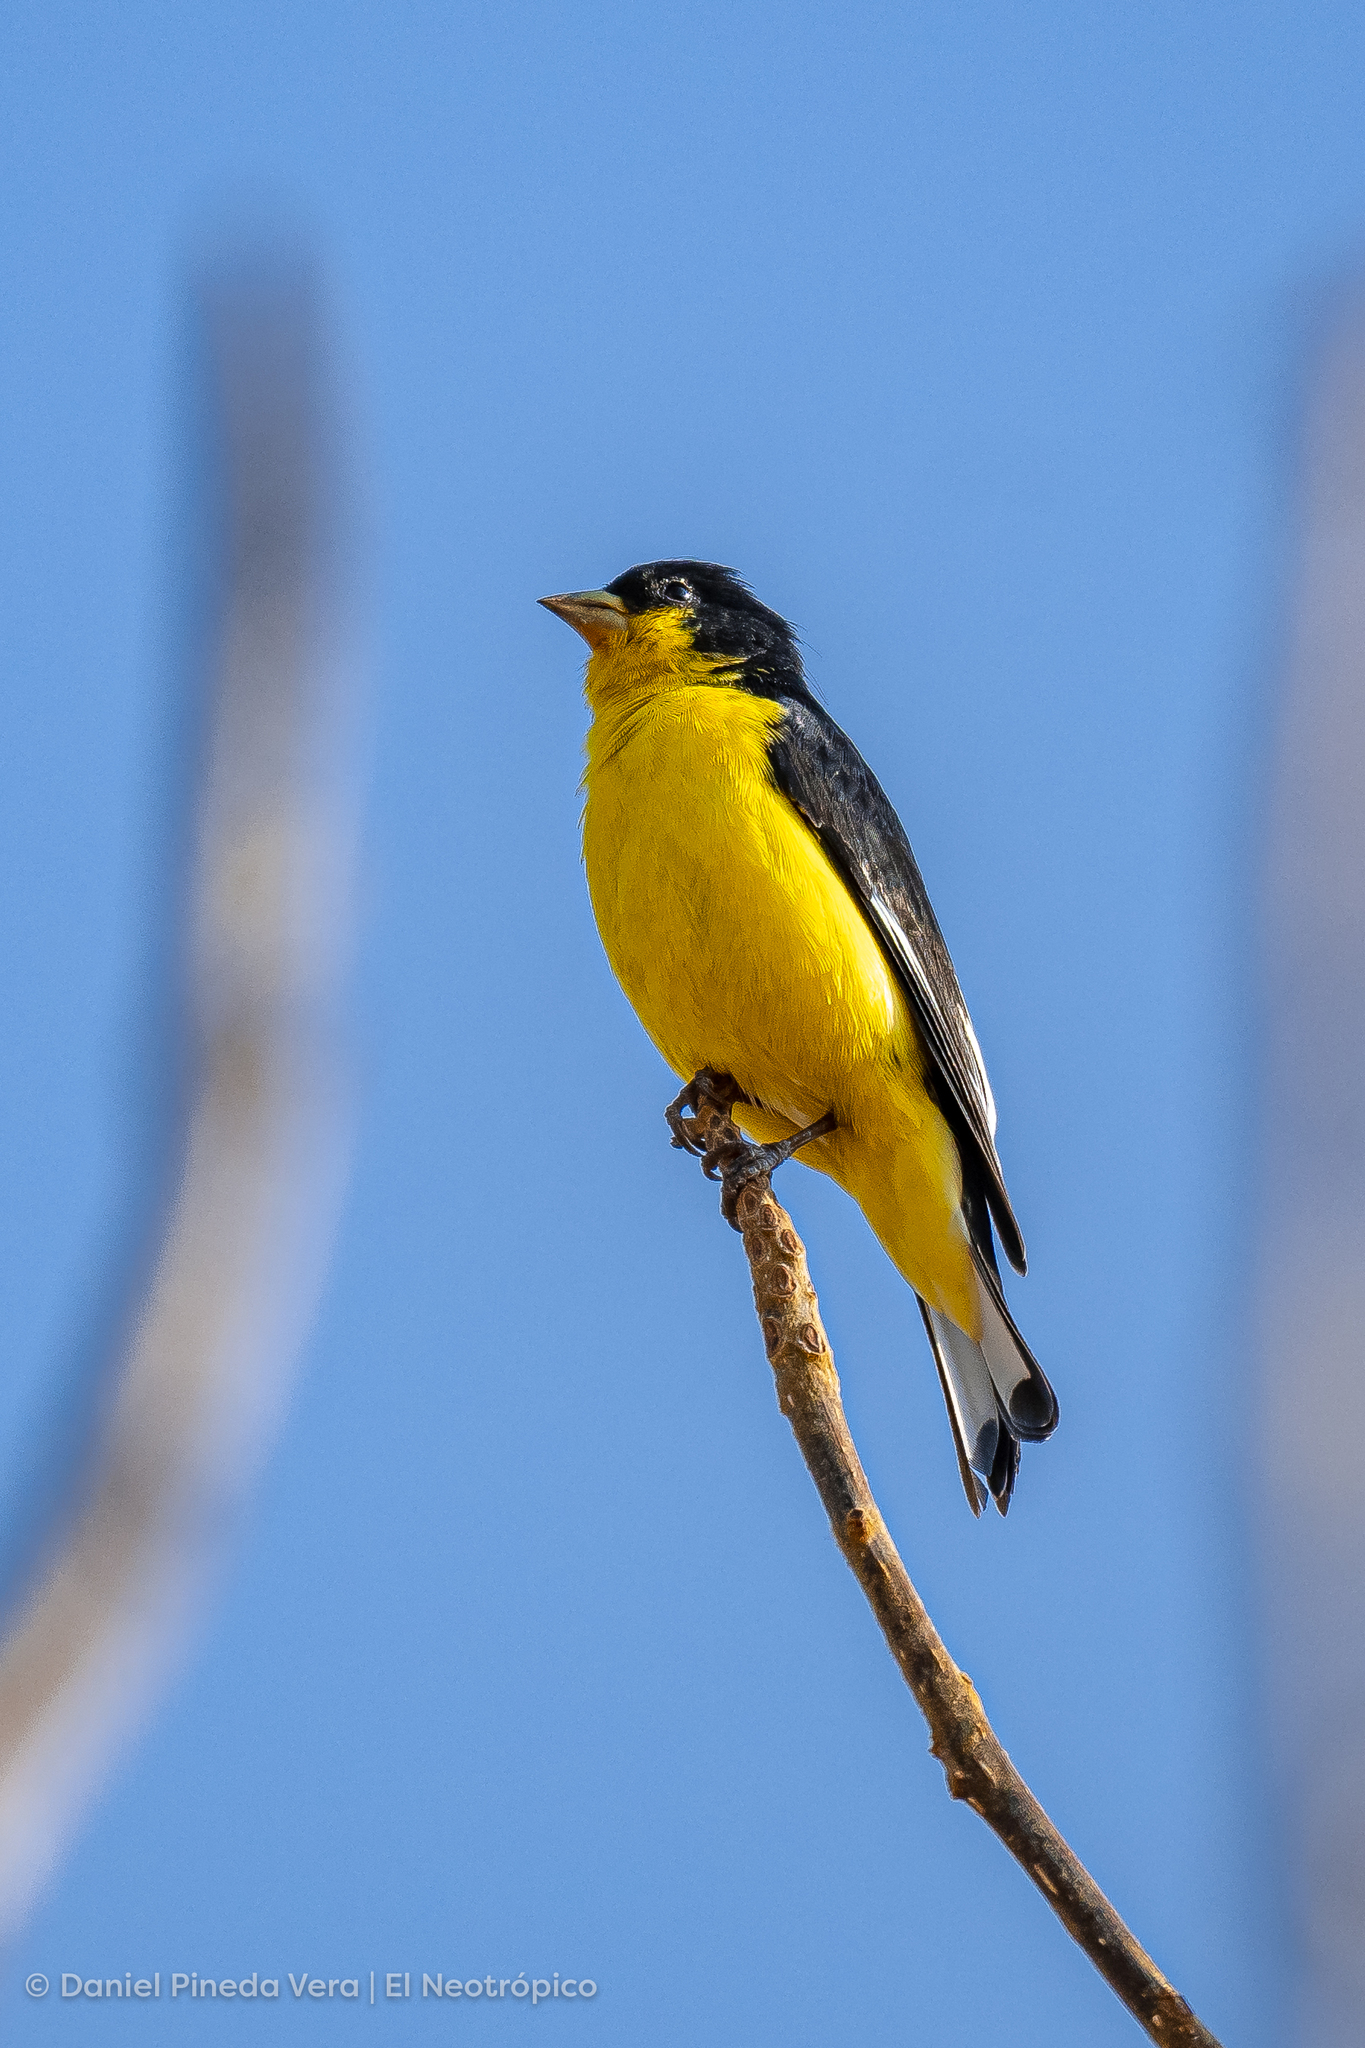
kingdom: Animalia
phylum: Chordata
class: Aves
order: Passeriformes
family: Fringillidae
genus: Spinus
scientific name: Spinus psaltria
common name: Lesser goldfinch
